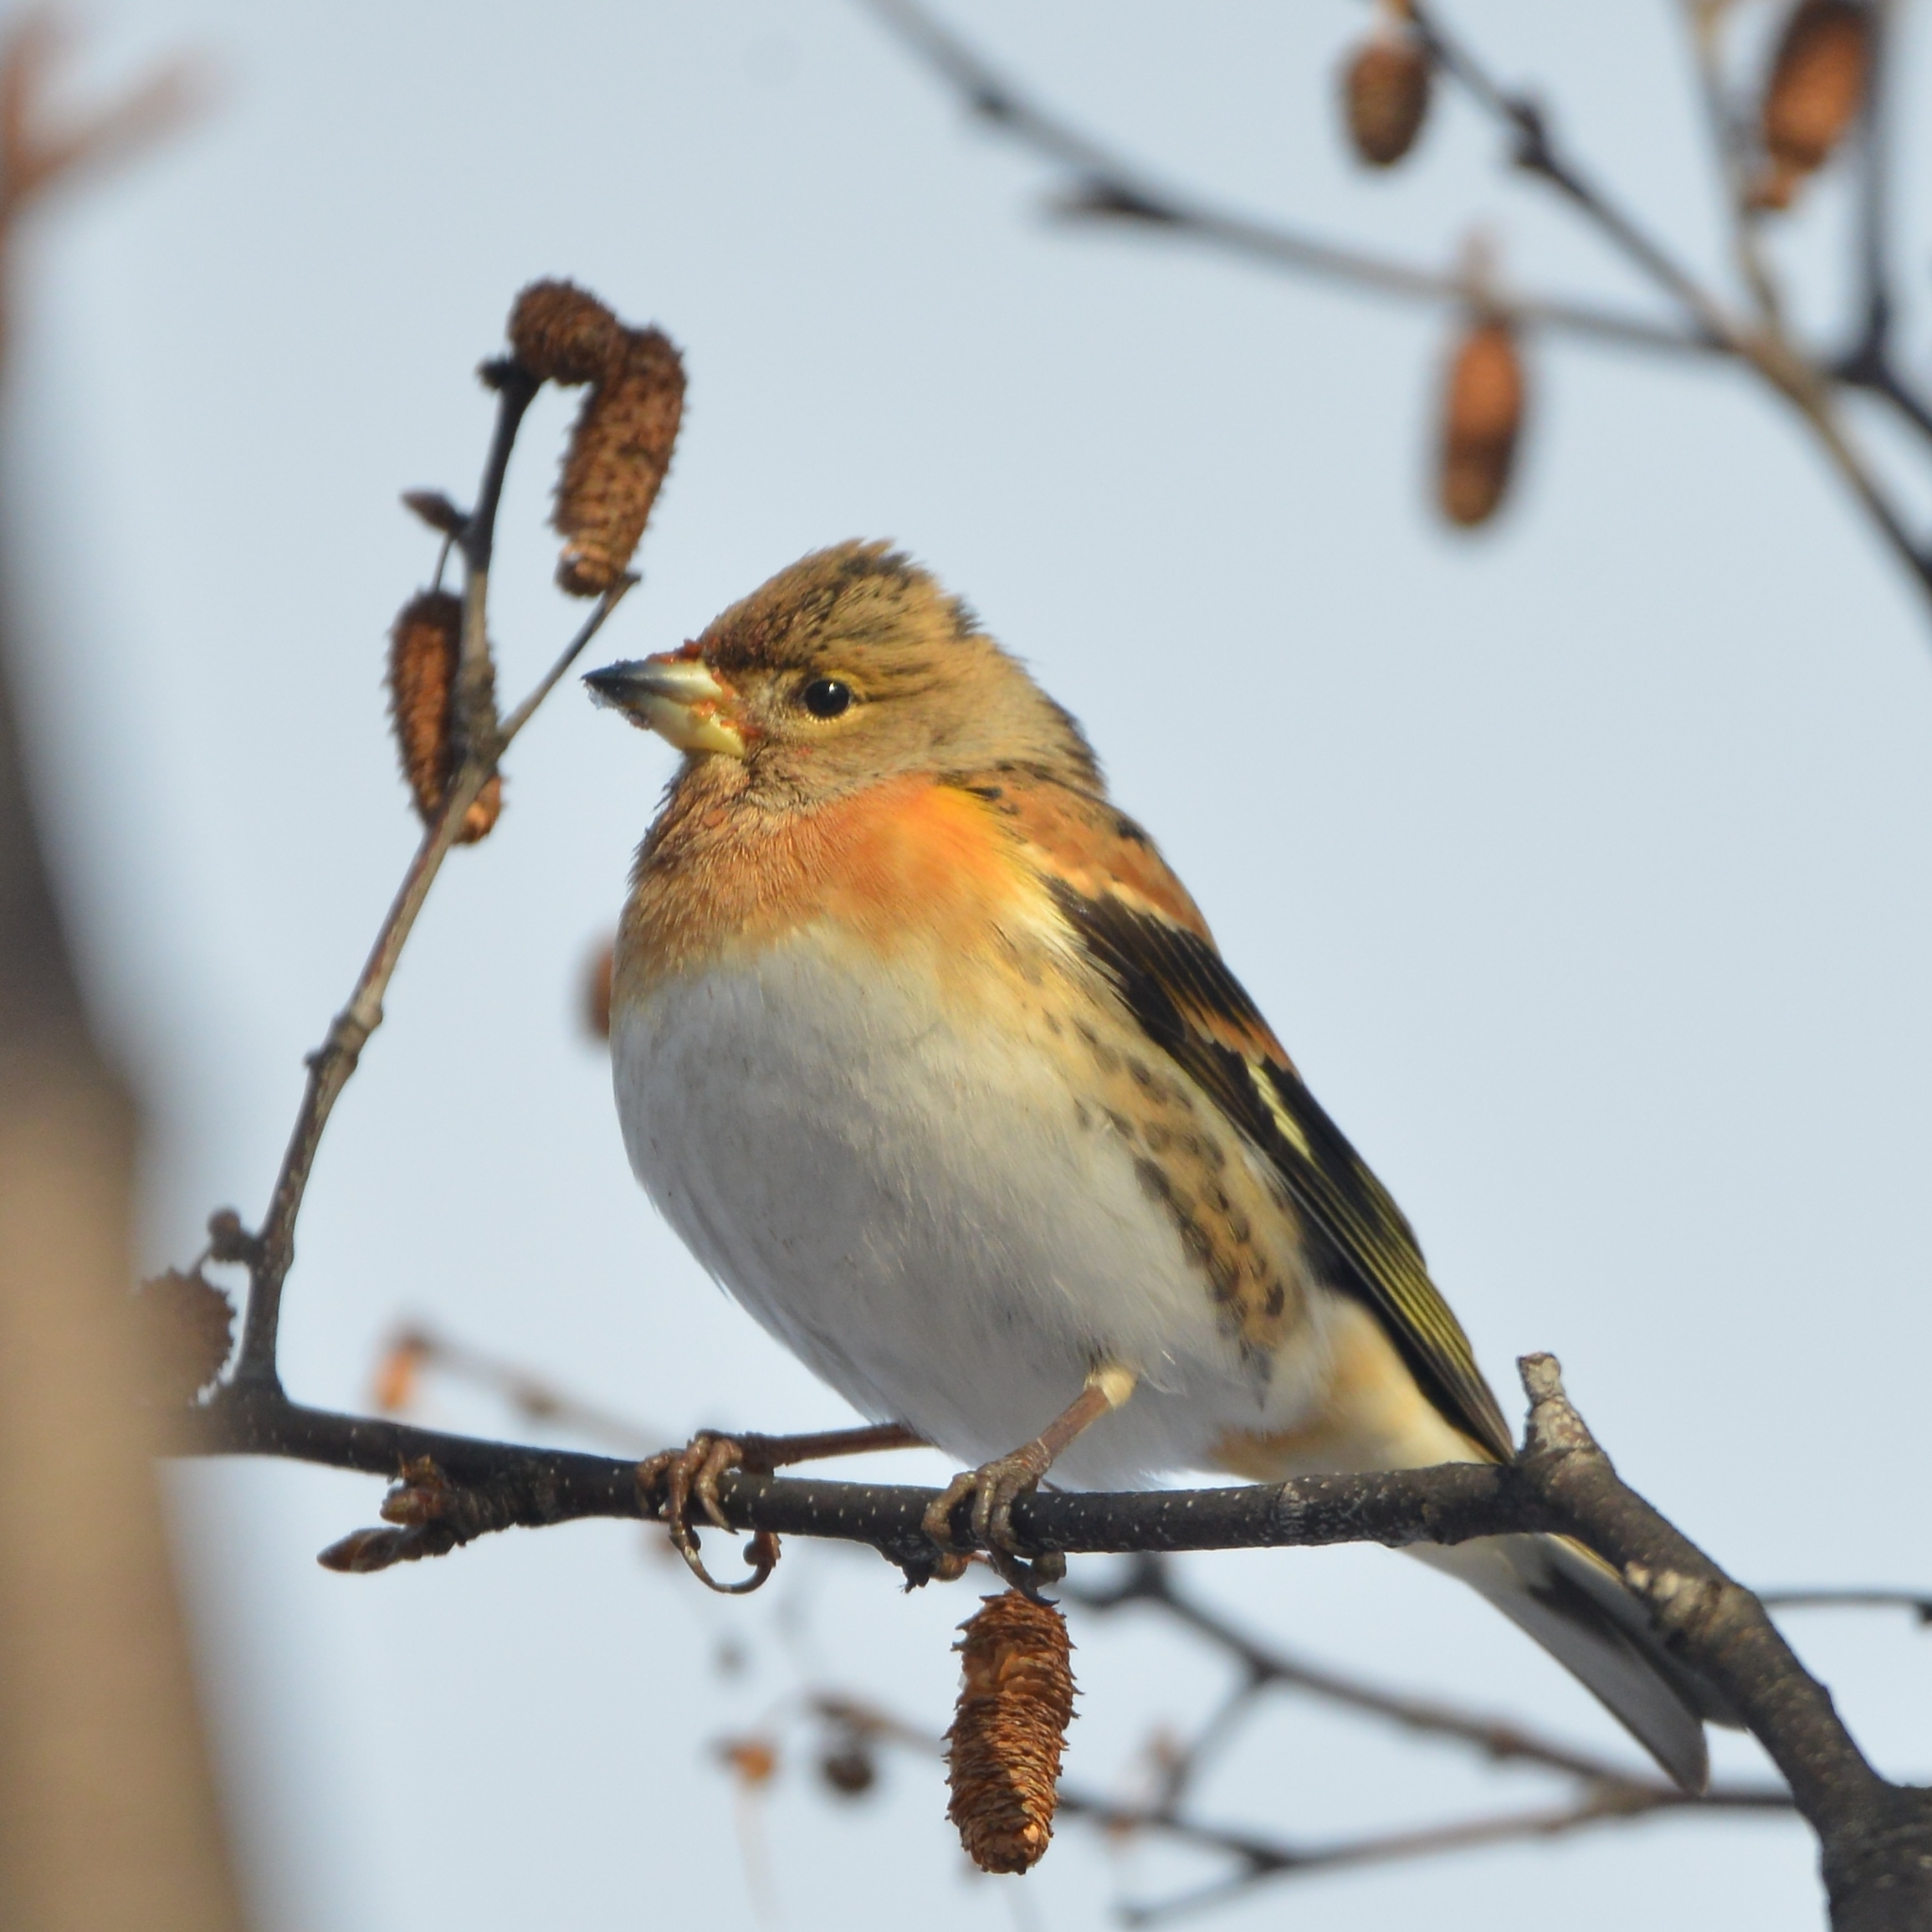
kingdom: Animalia
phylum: Chordata
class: Aves
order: Passeriformes
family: Fringillidae
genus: Fringilla
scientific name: Fringilla montifringilla
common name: Brambling
